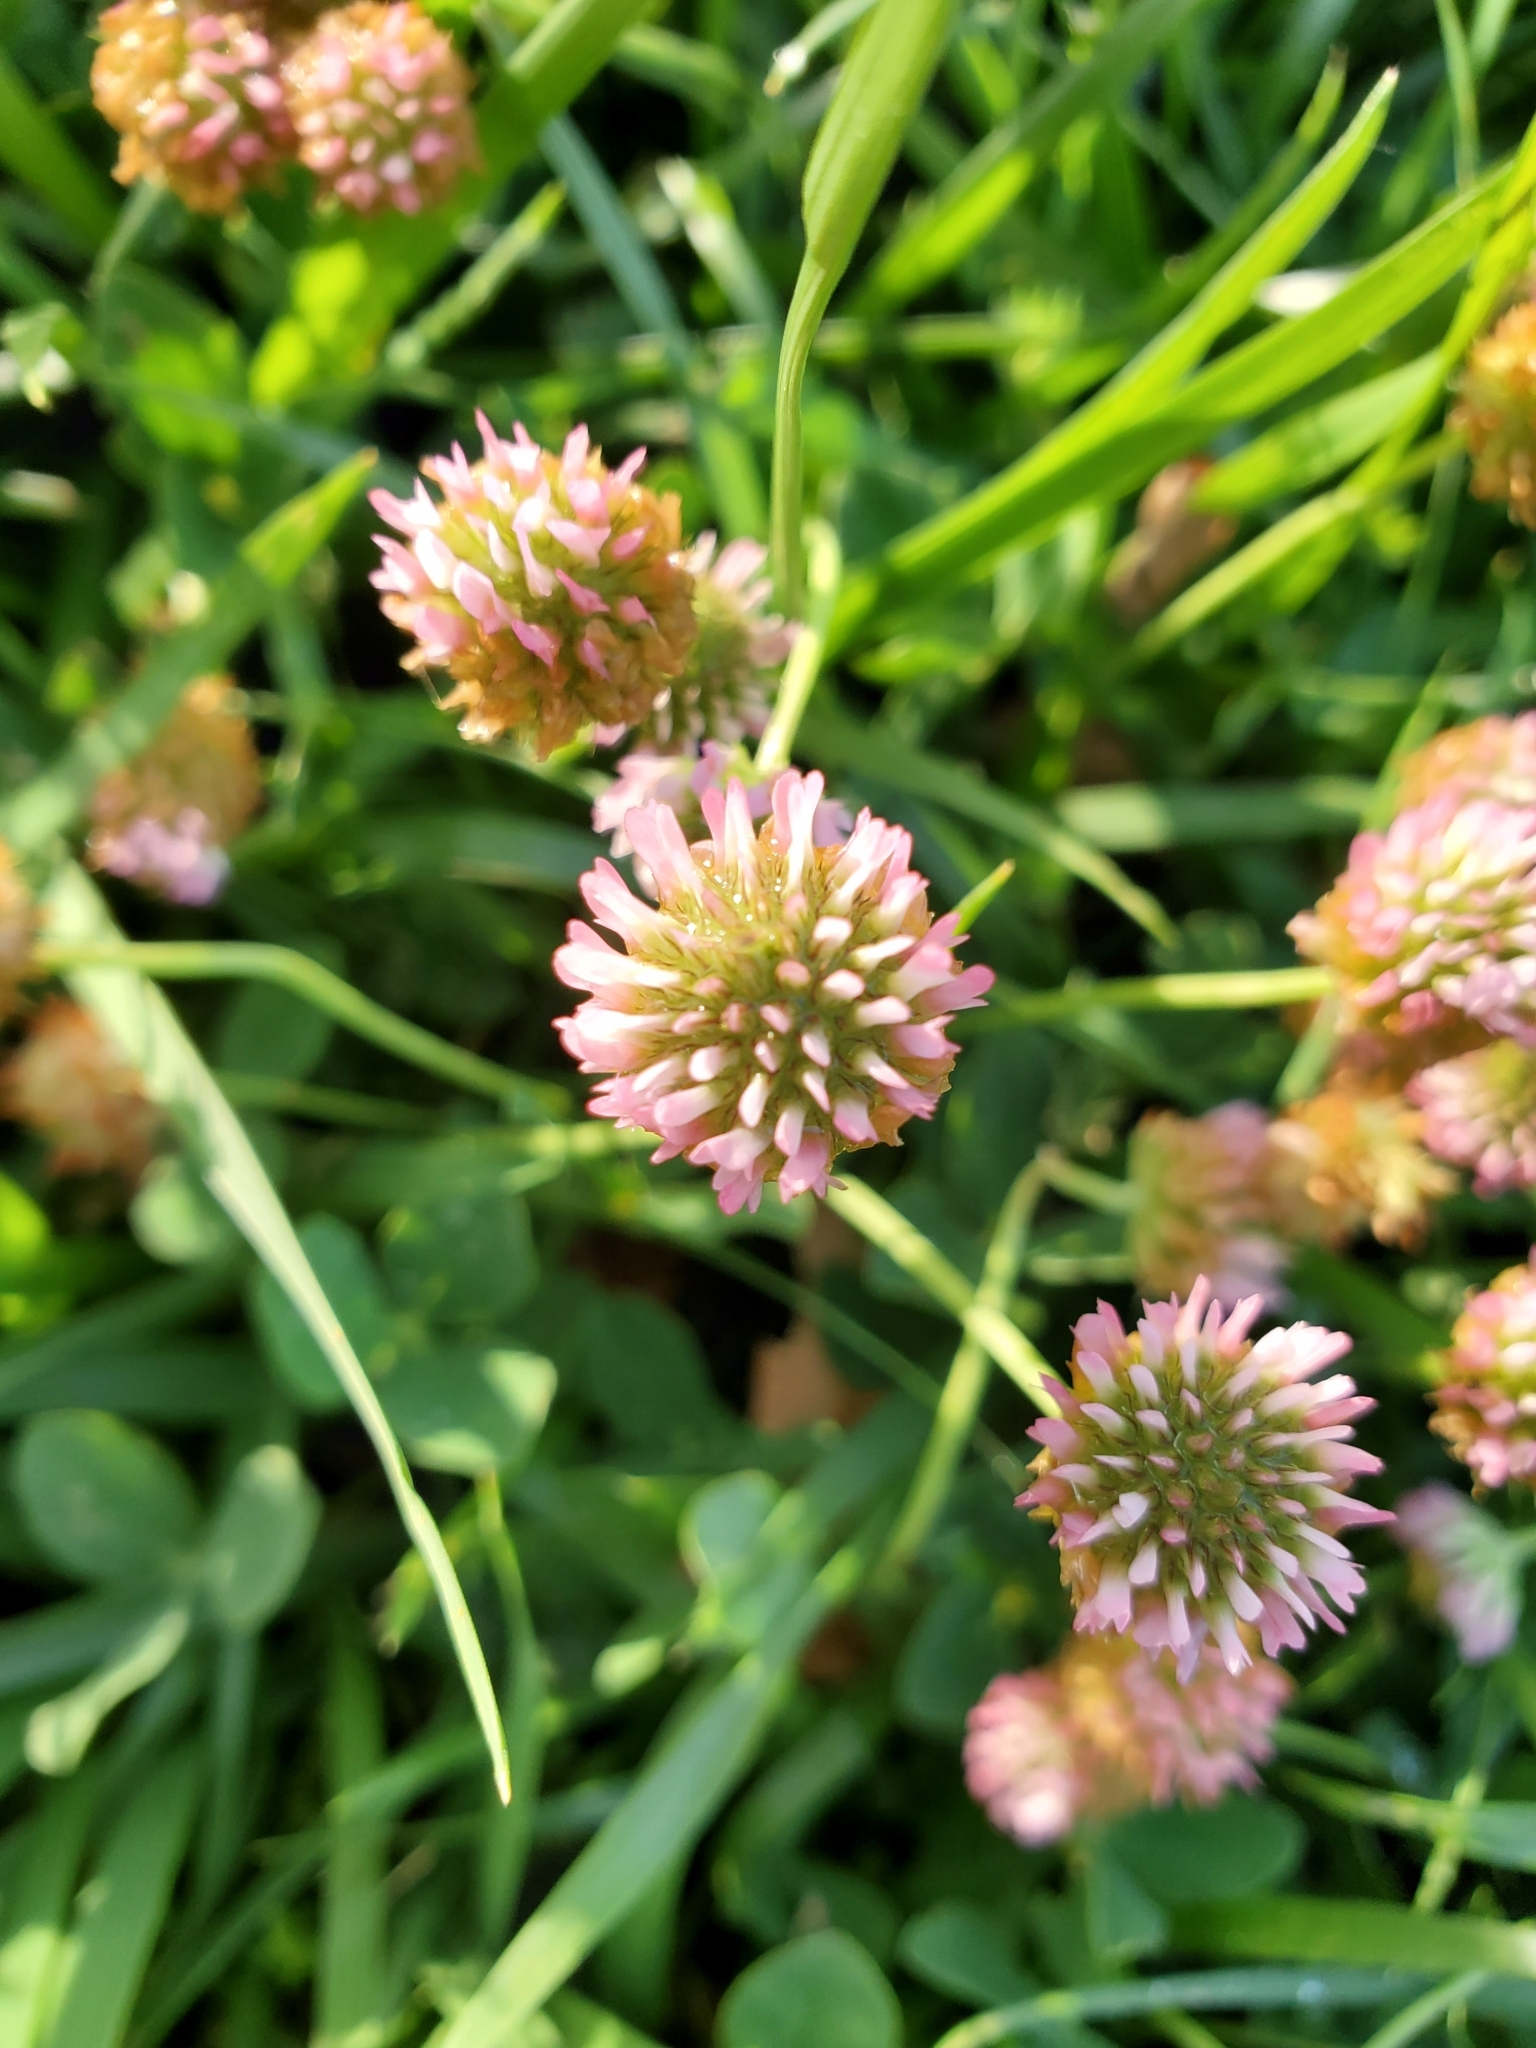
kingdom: Plantae
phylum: Tracheophyta
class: Magnoliopsida
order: Fabales
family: Fabaceae
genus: Trifolium
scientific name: Trifolium fragiferum
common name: Strawberry clover
